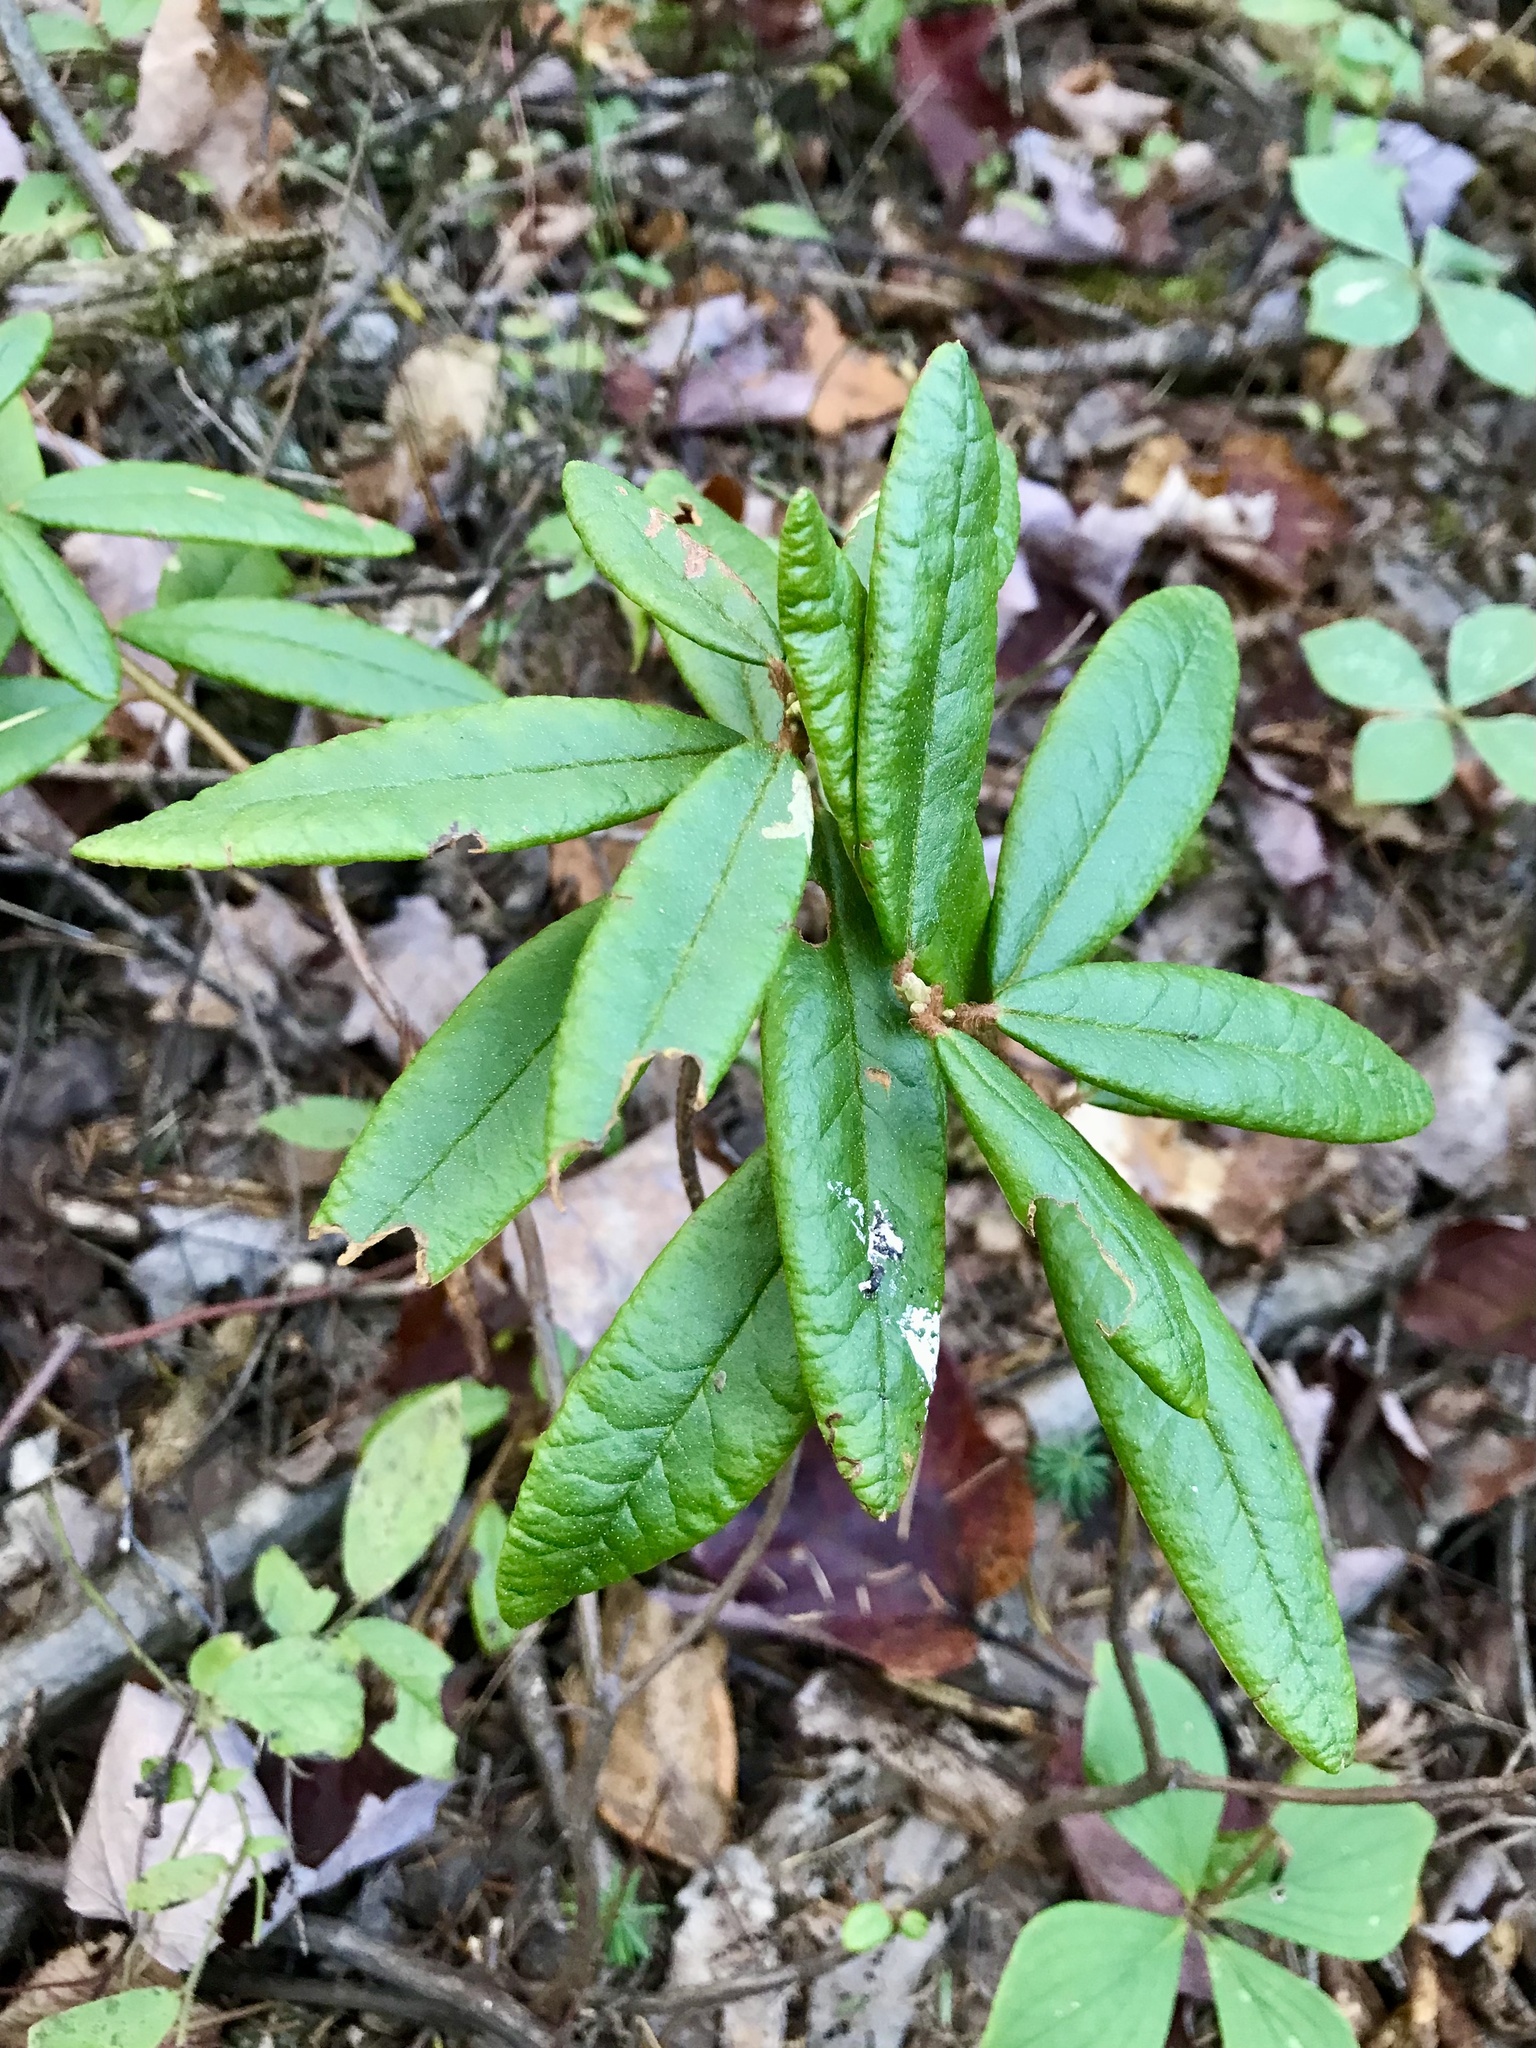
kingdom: Plantae
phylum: Tracheophyta
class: Magnoliopsida
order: Ericales
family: Ericaceae
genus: Rhododendron
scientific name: Rhododendron groenlandicum
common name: Bog labrador tea
